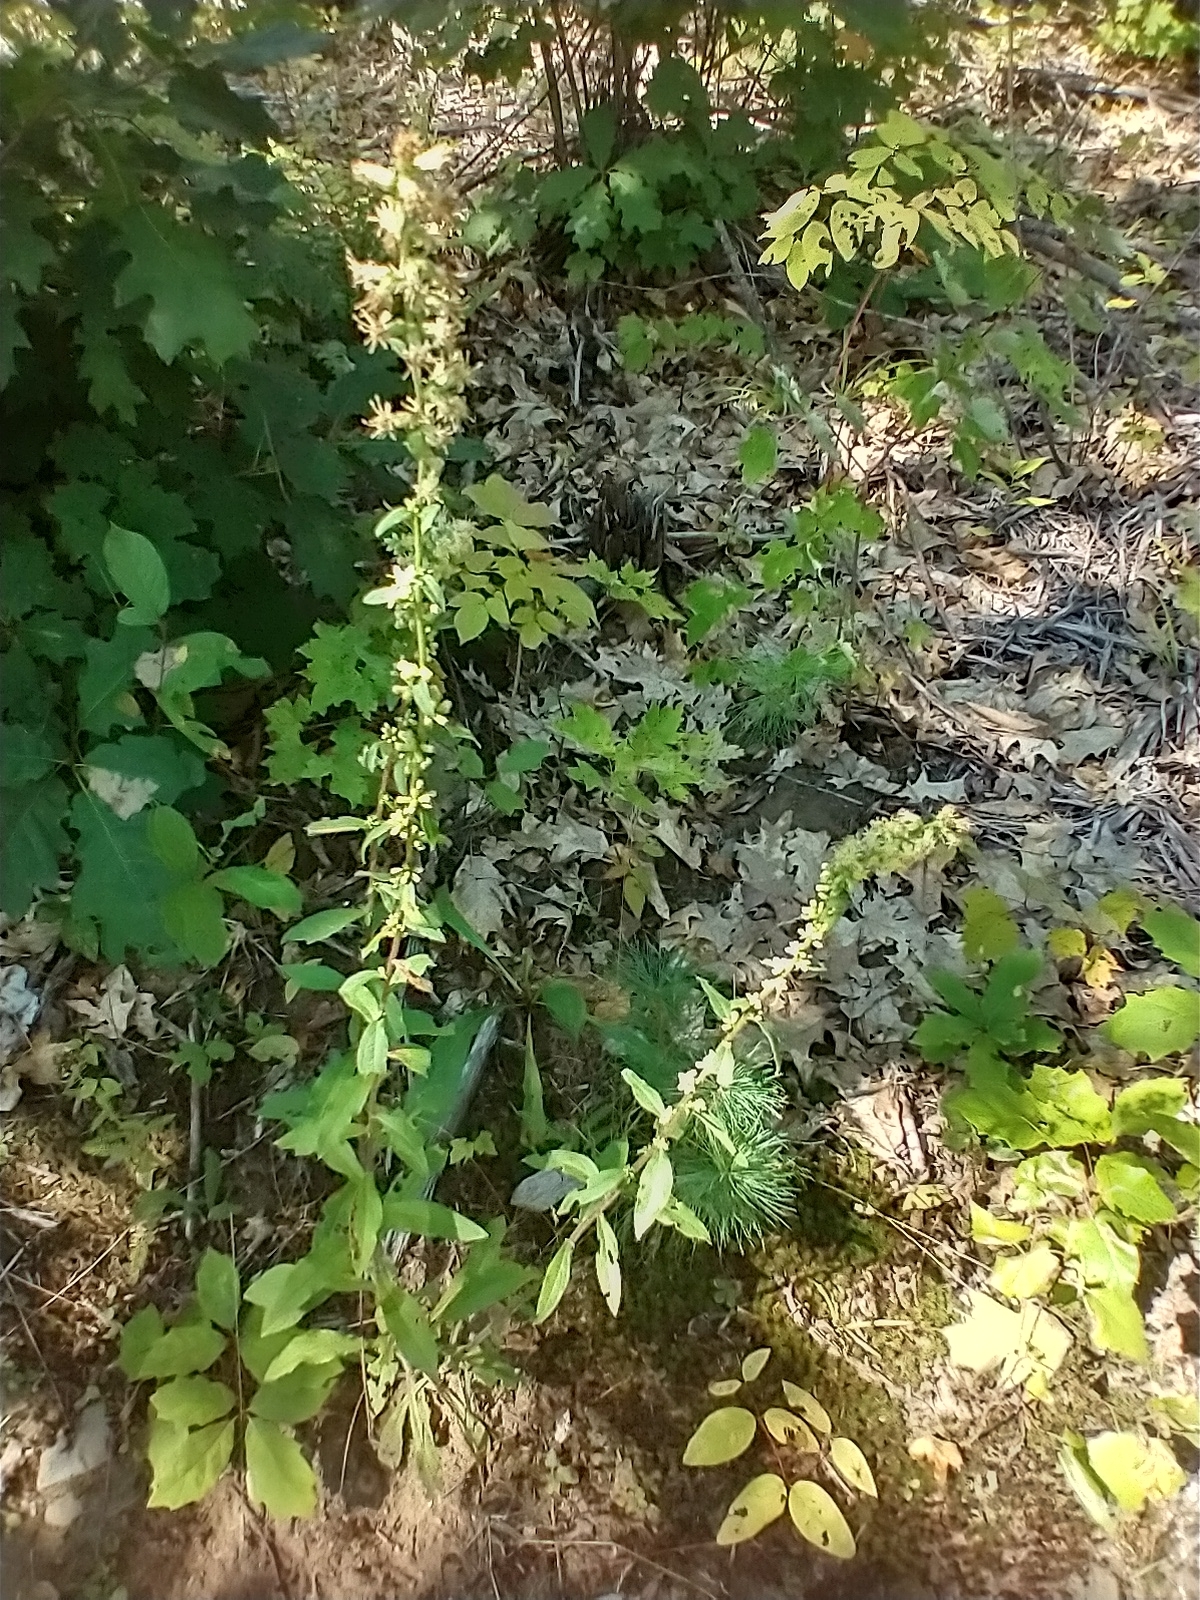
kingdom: Plantae
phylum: Tracheophyta
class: Magnoliopsida
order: Asterales
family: Asteraceae
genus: Solidago
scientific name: Solidago bicolor
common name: Silverrod
